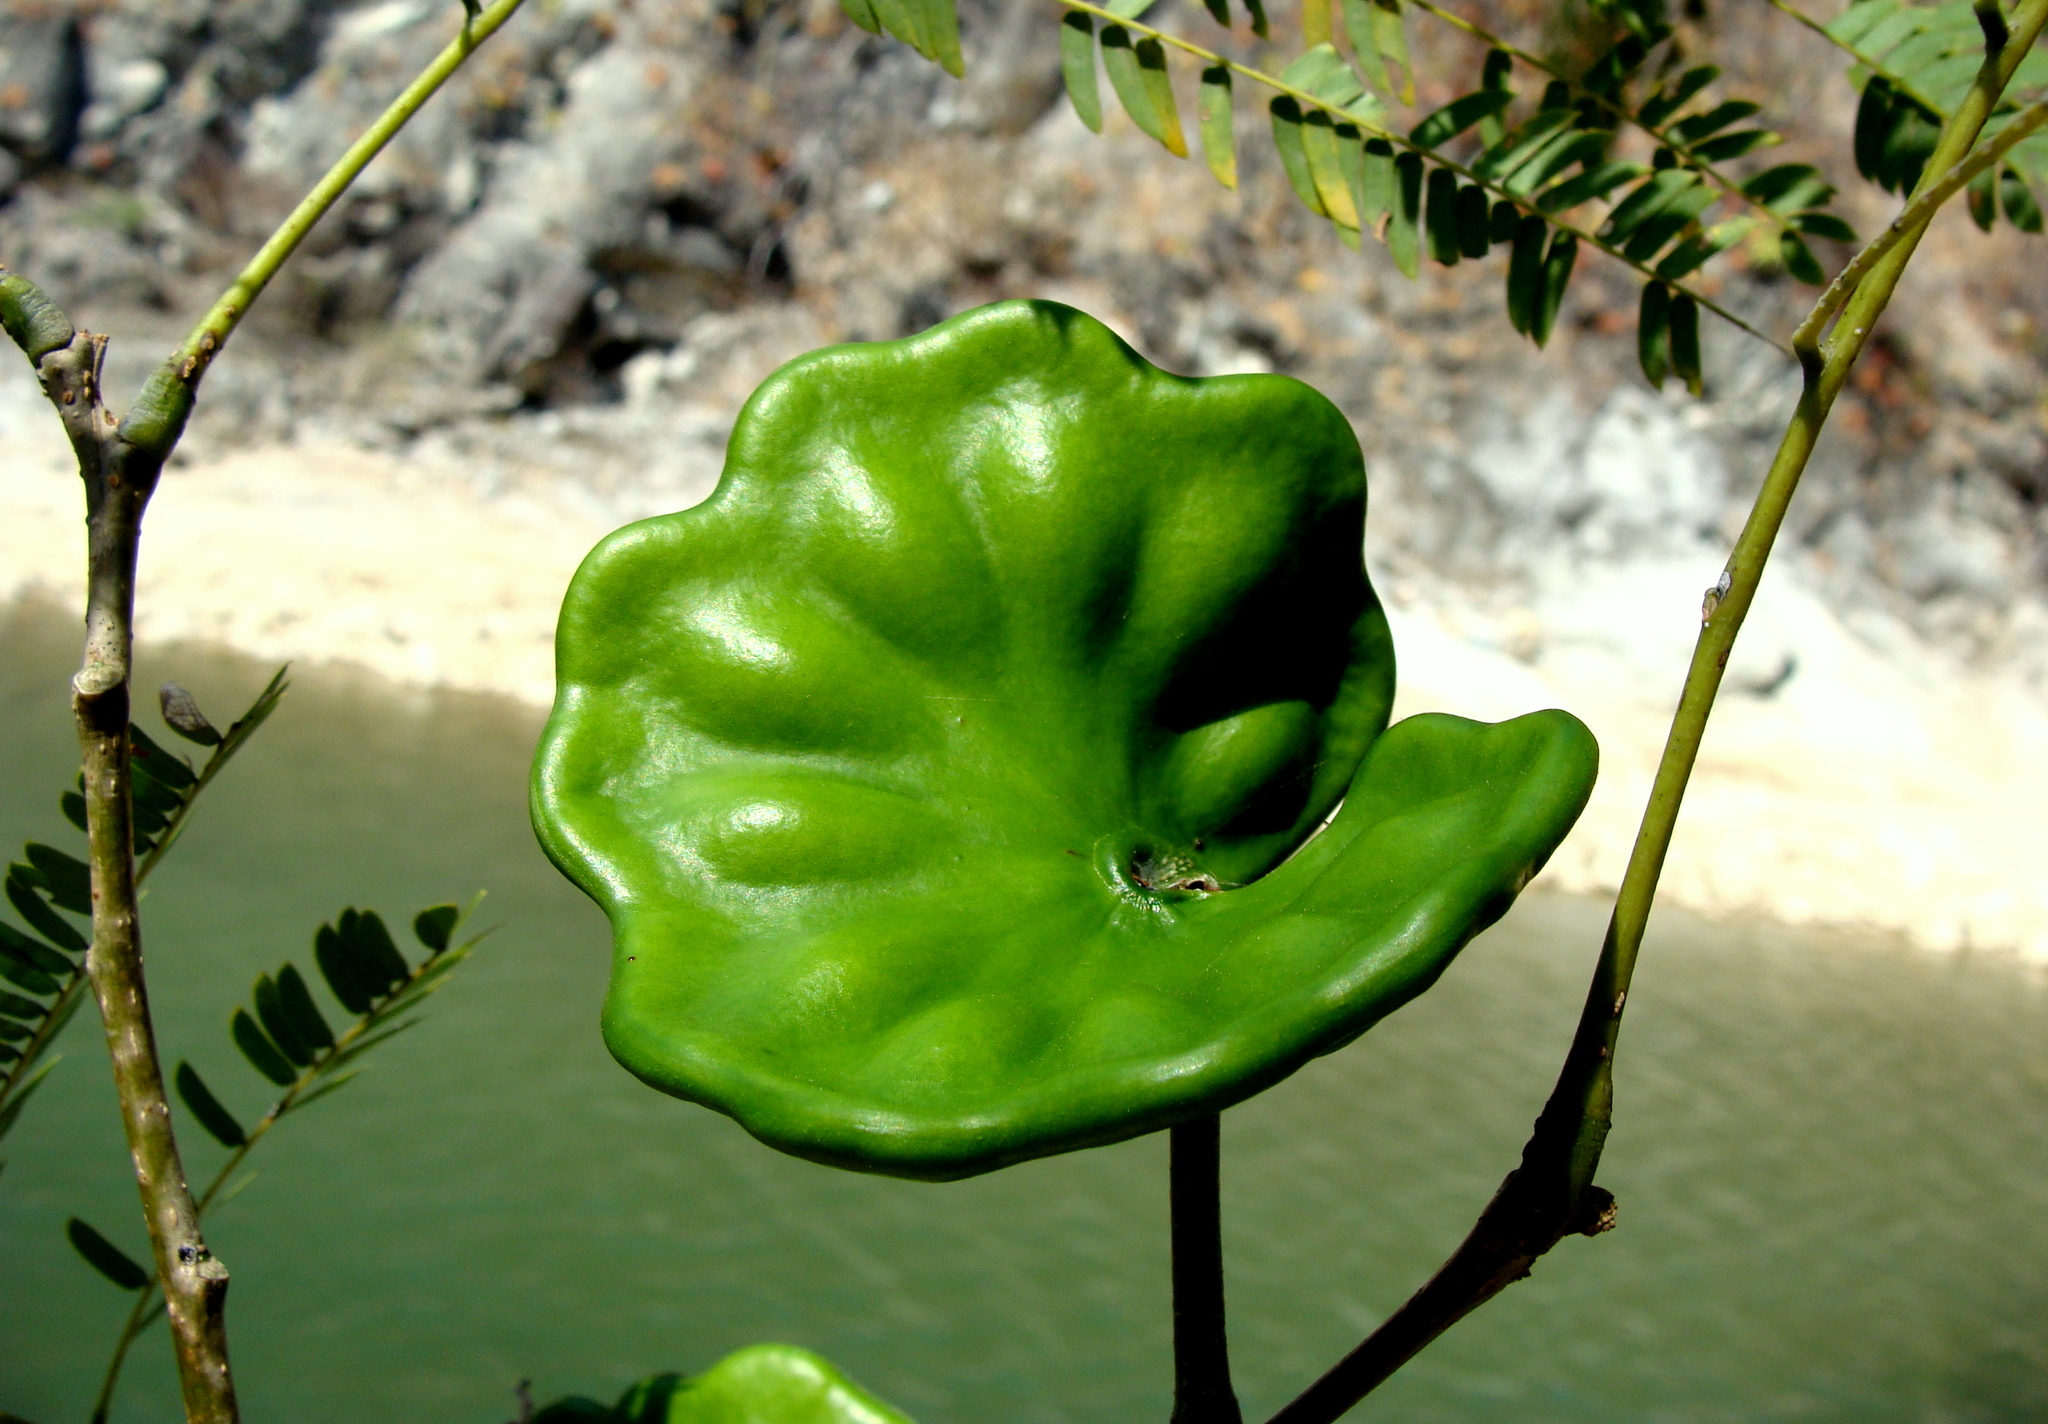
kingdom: Plantae
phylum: Tracheophyta
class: Magnoliopsida
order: Fabales
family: Fabaceae
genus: Enterolobium
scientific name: Enterolobium cyclocarpum
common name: Ear tree
